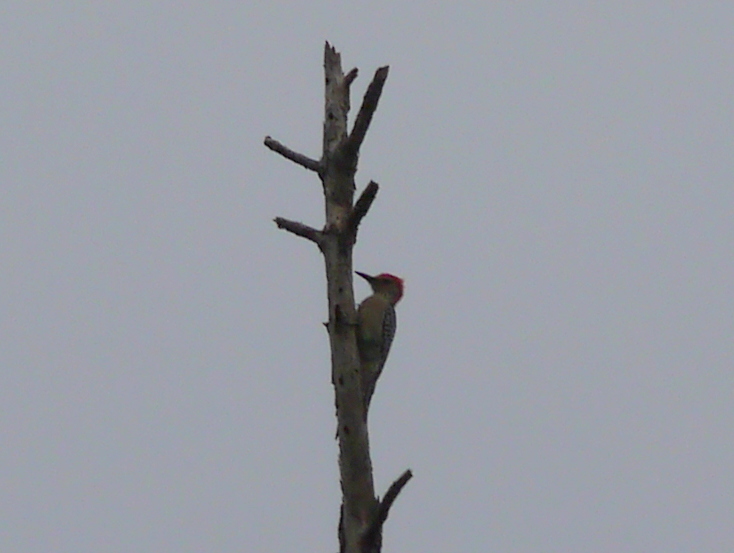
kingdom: Animalia
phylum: Chordata
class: Aves
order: Piciformes
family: Picidae
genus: Melanerpes
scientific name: Melanerpes carolinus
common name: Red-bellied woodpecker
